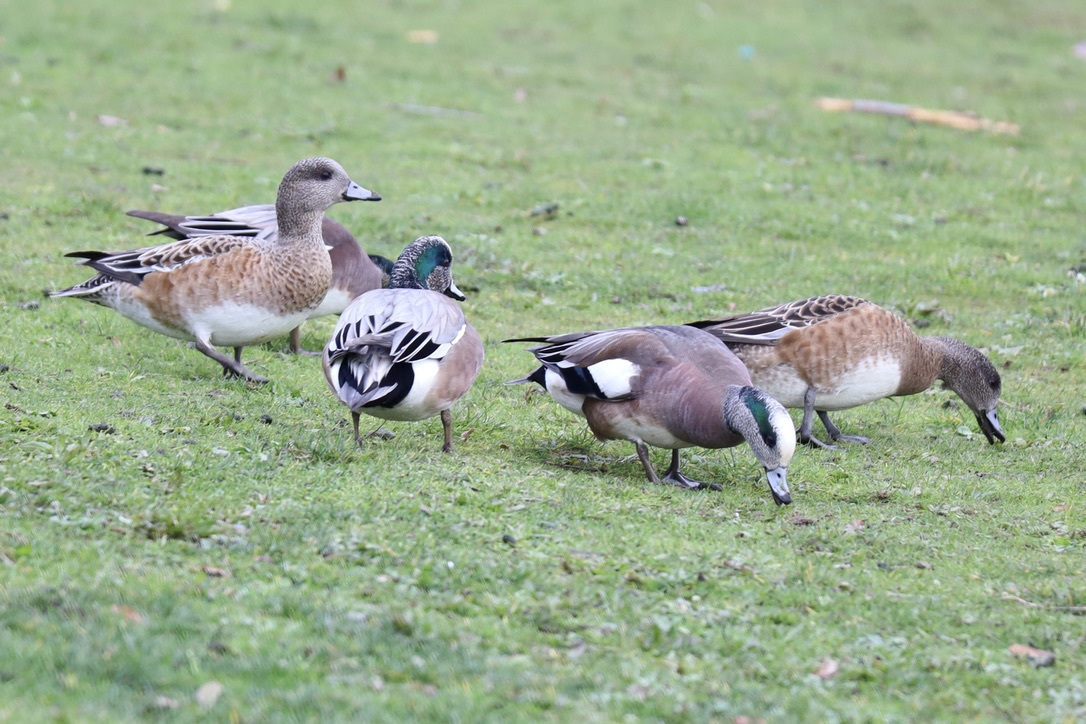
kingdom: Animalia
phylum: Chordata
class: Aves
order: Anseriformes
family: Anatidae
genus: Mareca
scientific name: Mareca americana
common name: American wigeon
